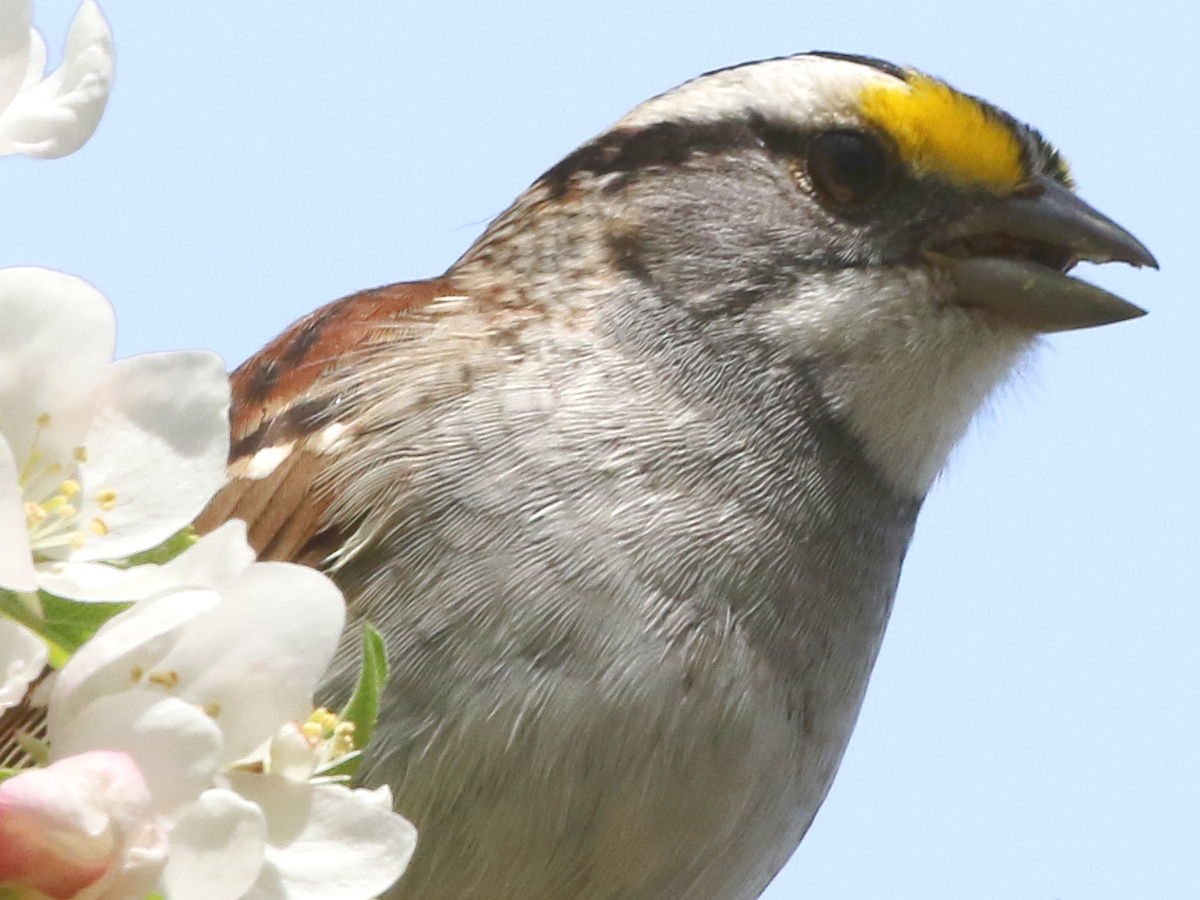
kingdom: Animalia
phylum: Chordata
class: Aves
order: Passeriformes
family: Passerellidae
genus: Zonotrichia
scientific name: Zonotrichia albicollis
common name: White-throated sparrow
